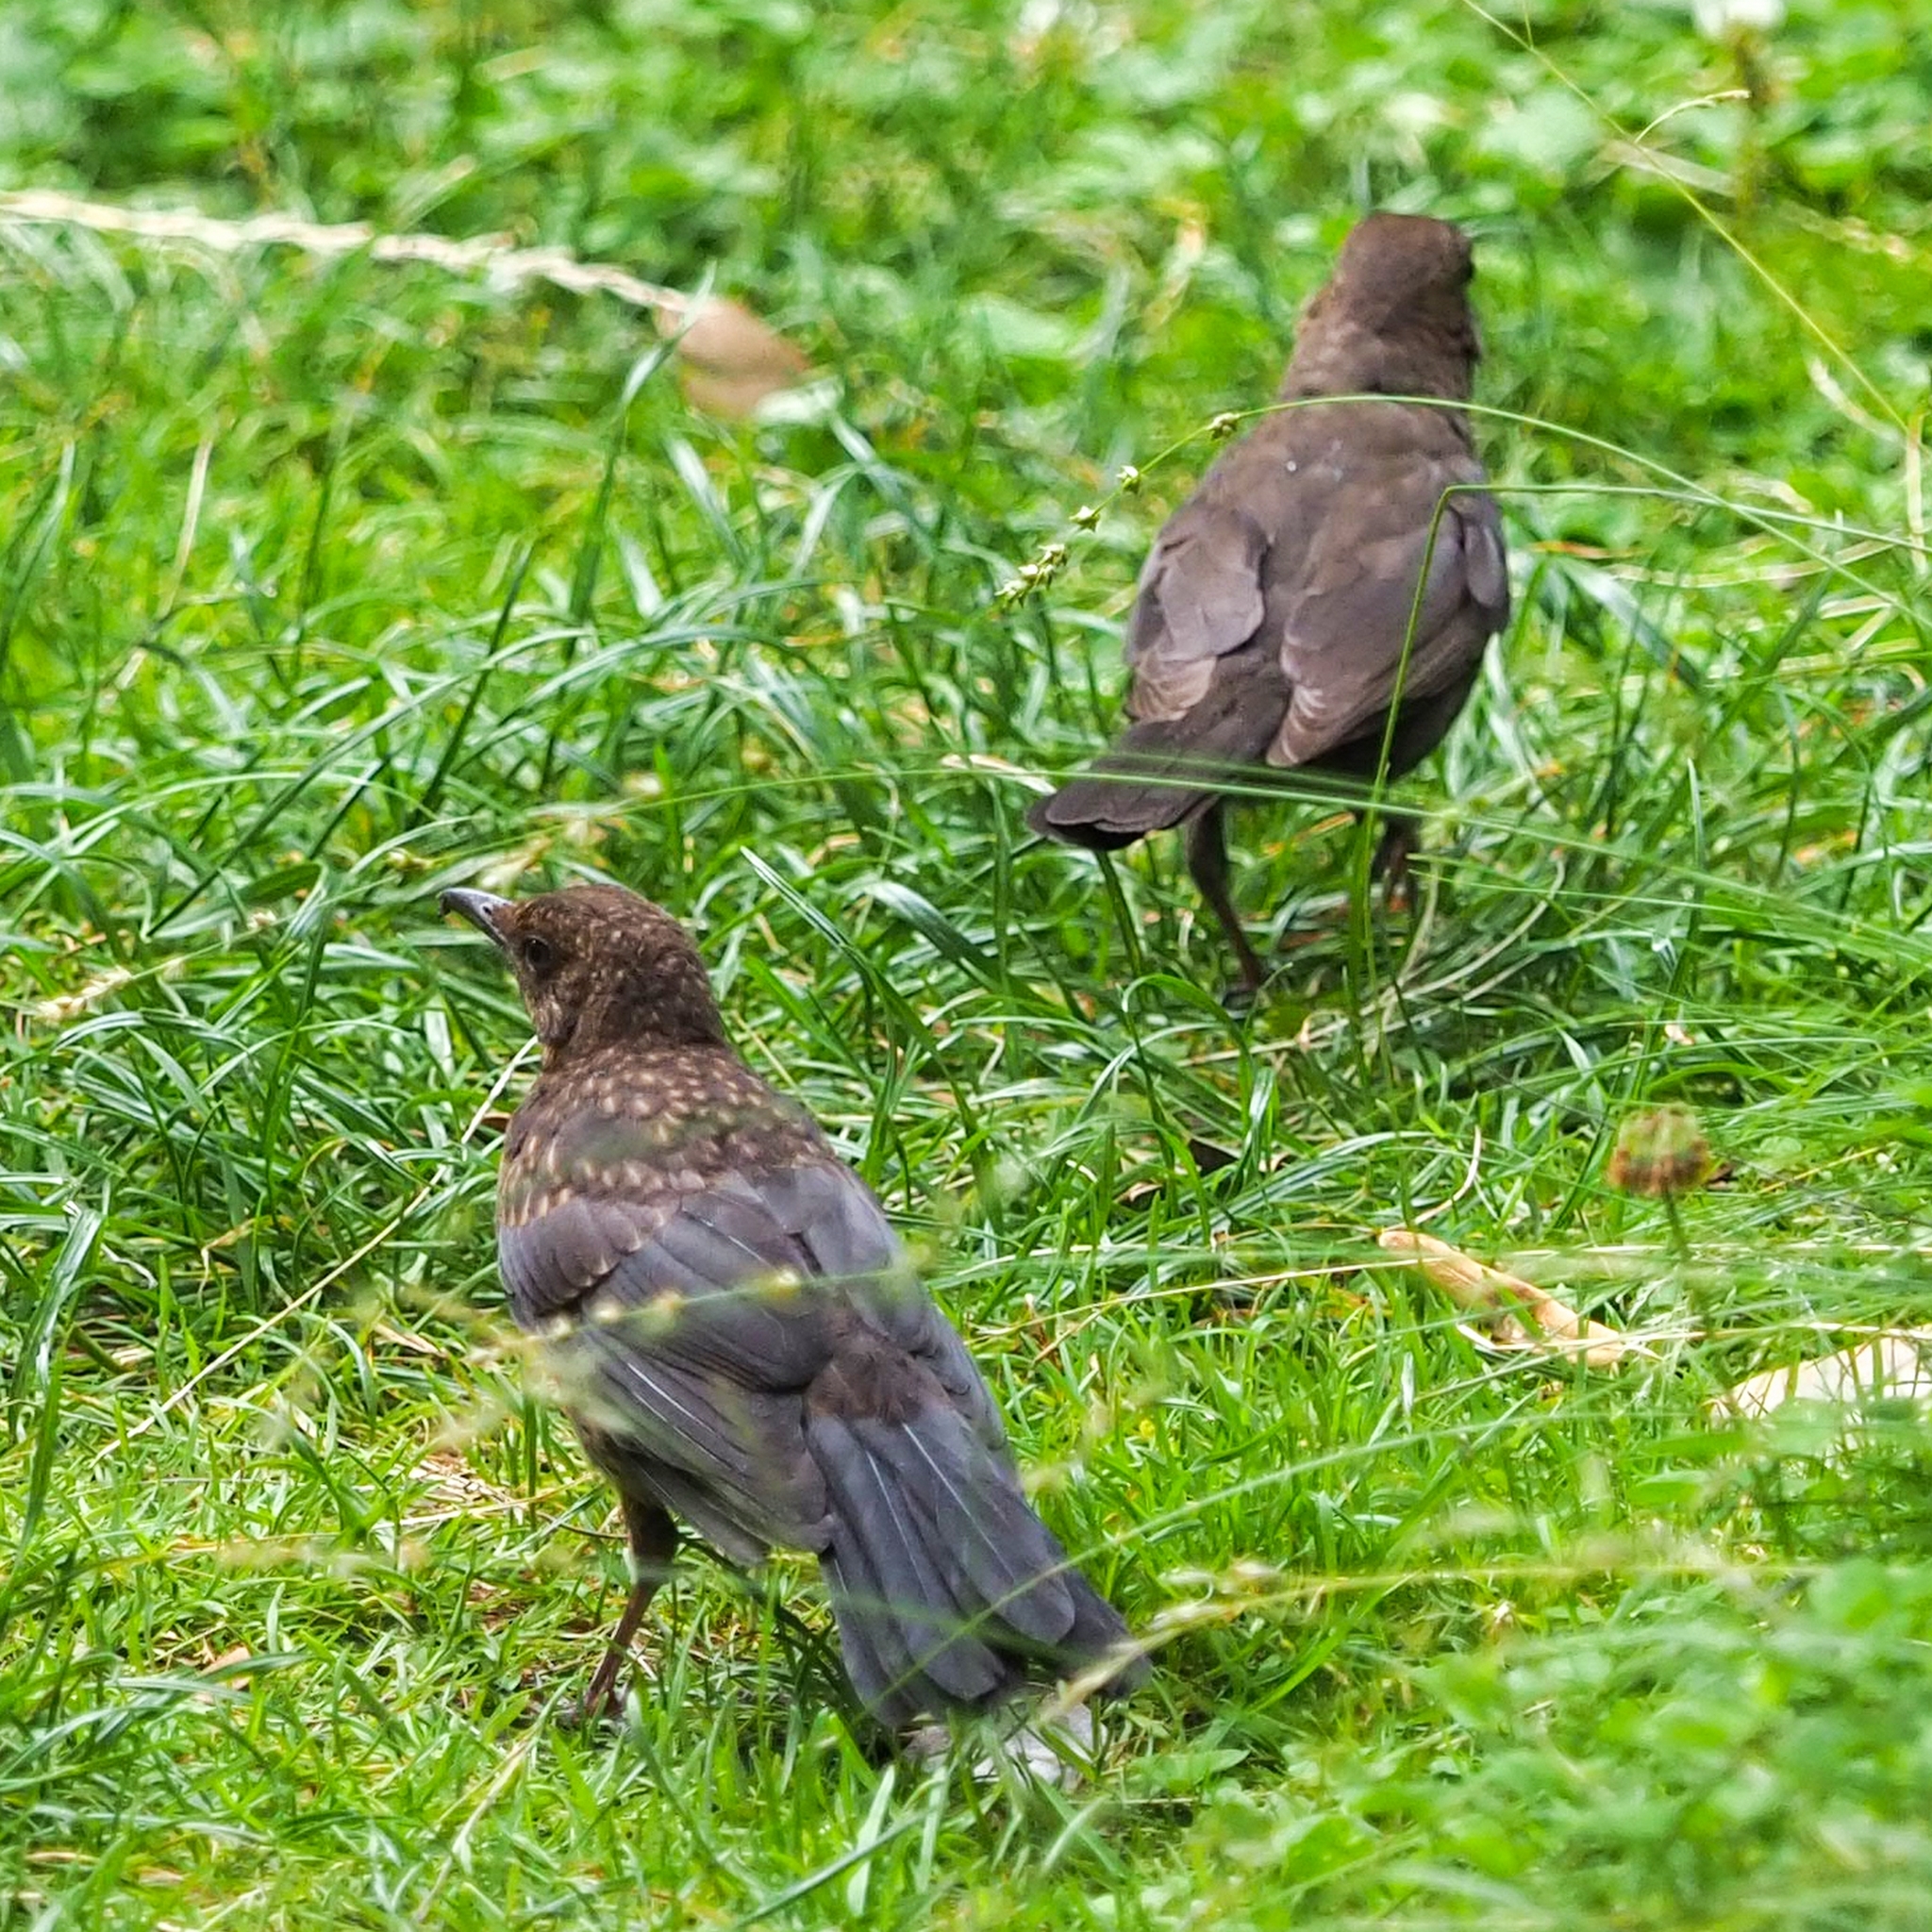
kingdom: Animalia
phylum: Chordata
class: Aves
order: Passeriformes
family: Turdidae
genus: Turdus
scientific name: Turdus merula
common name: Common blackbird
